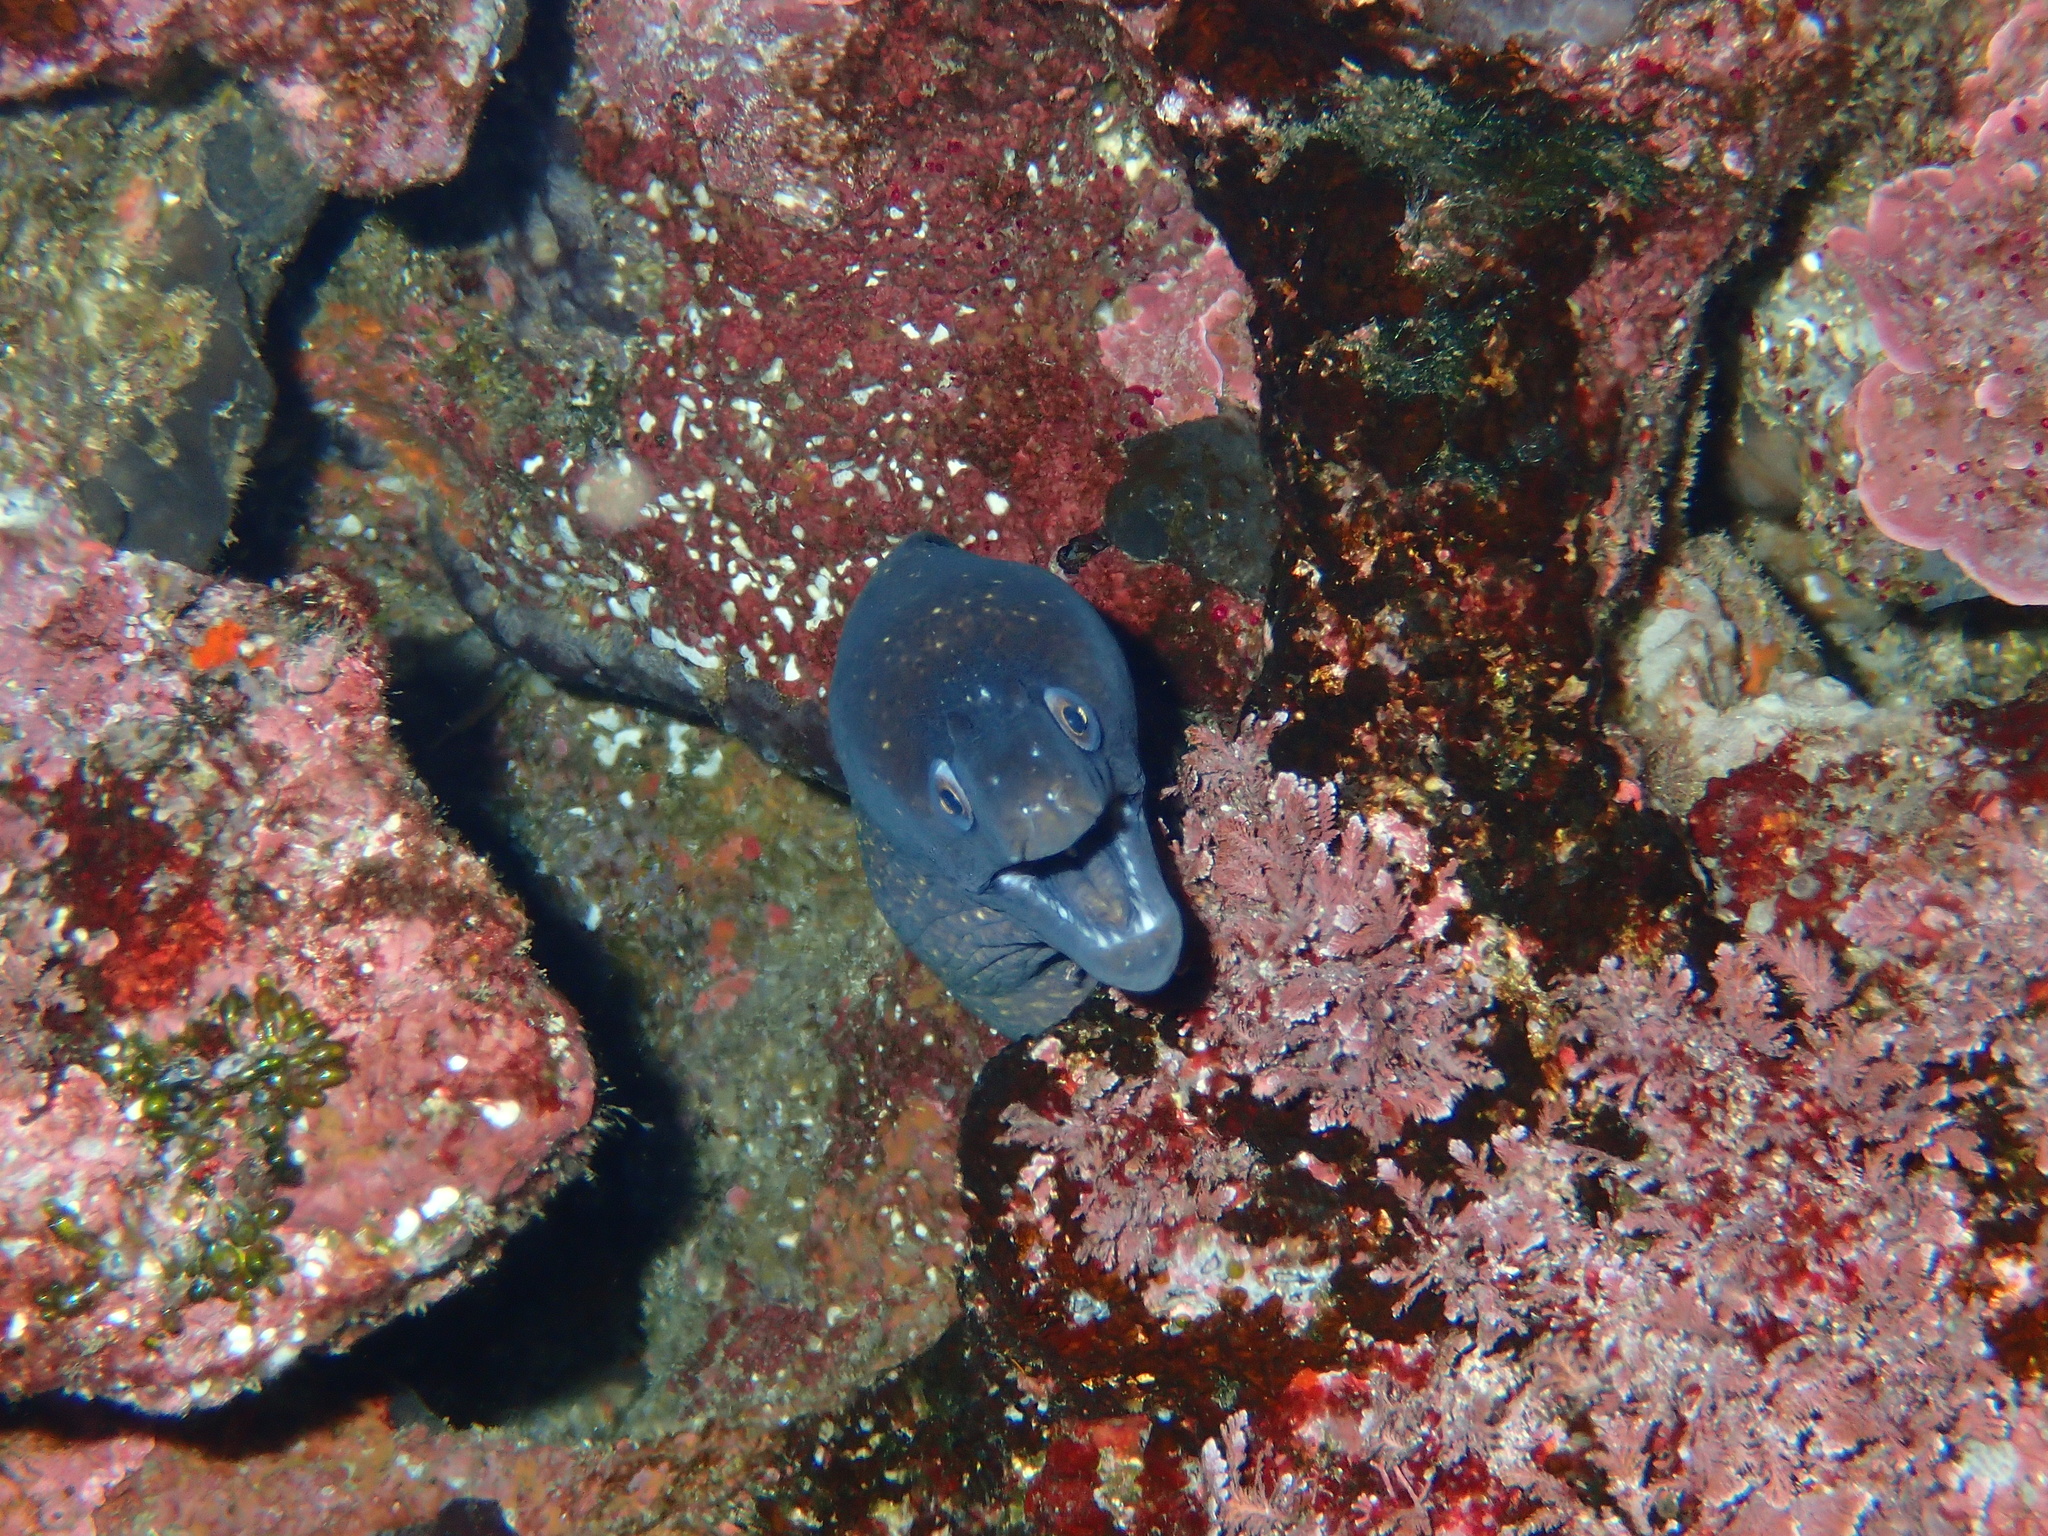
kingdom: Animalia
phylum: Chordata
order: Anguilliformes
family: Muraenidae
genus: Muraena
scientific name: Muraena helena
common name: Mediterranean moray
